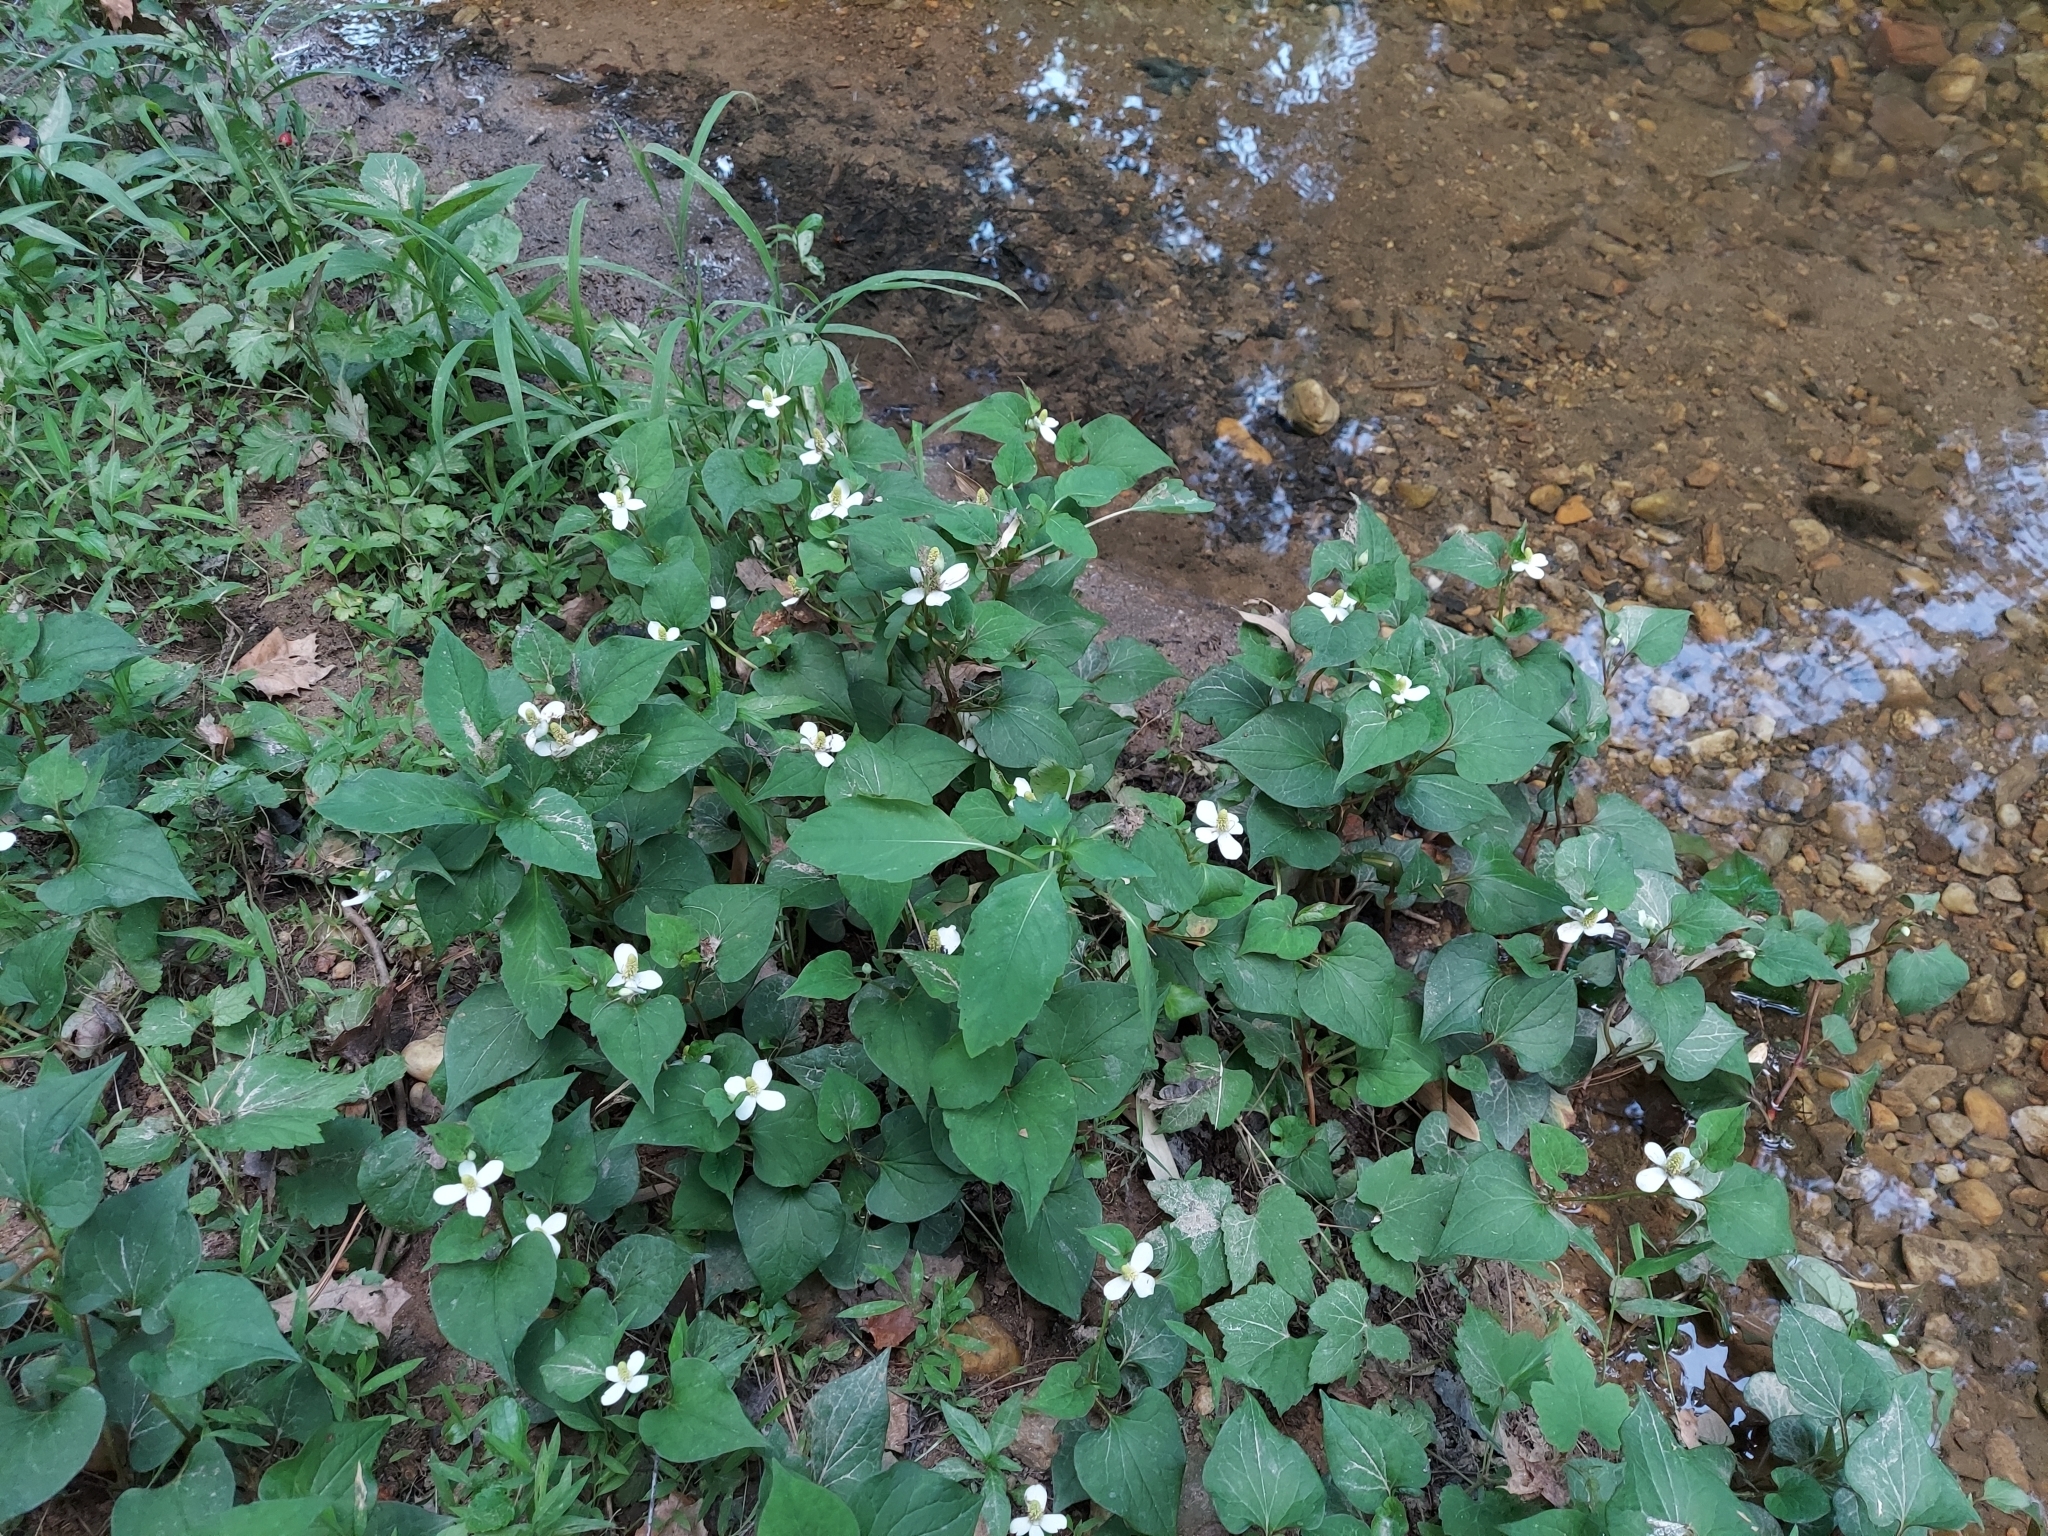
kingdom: Plantae
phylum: Tracheophyta
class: Magnoliopsida
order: Piperales
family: Saururaceae
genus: Houttuynia
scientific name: Houttuynia cordata
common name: Chameleon
